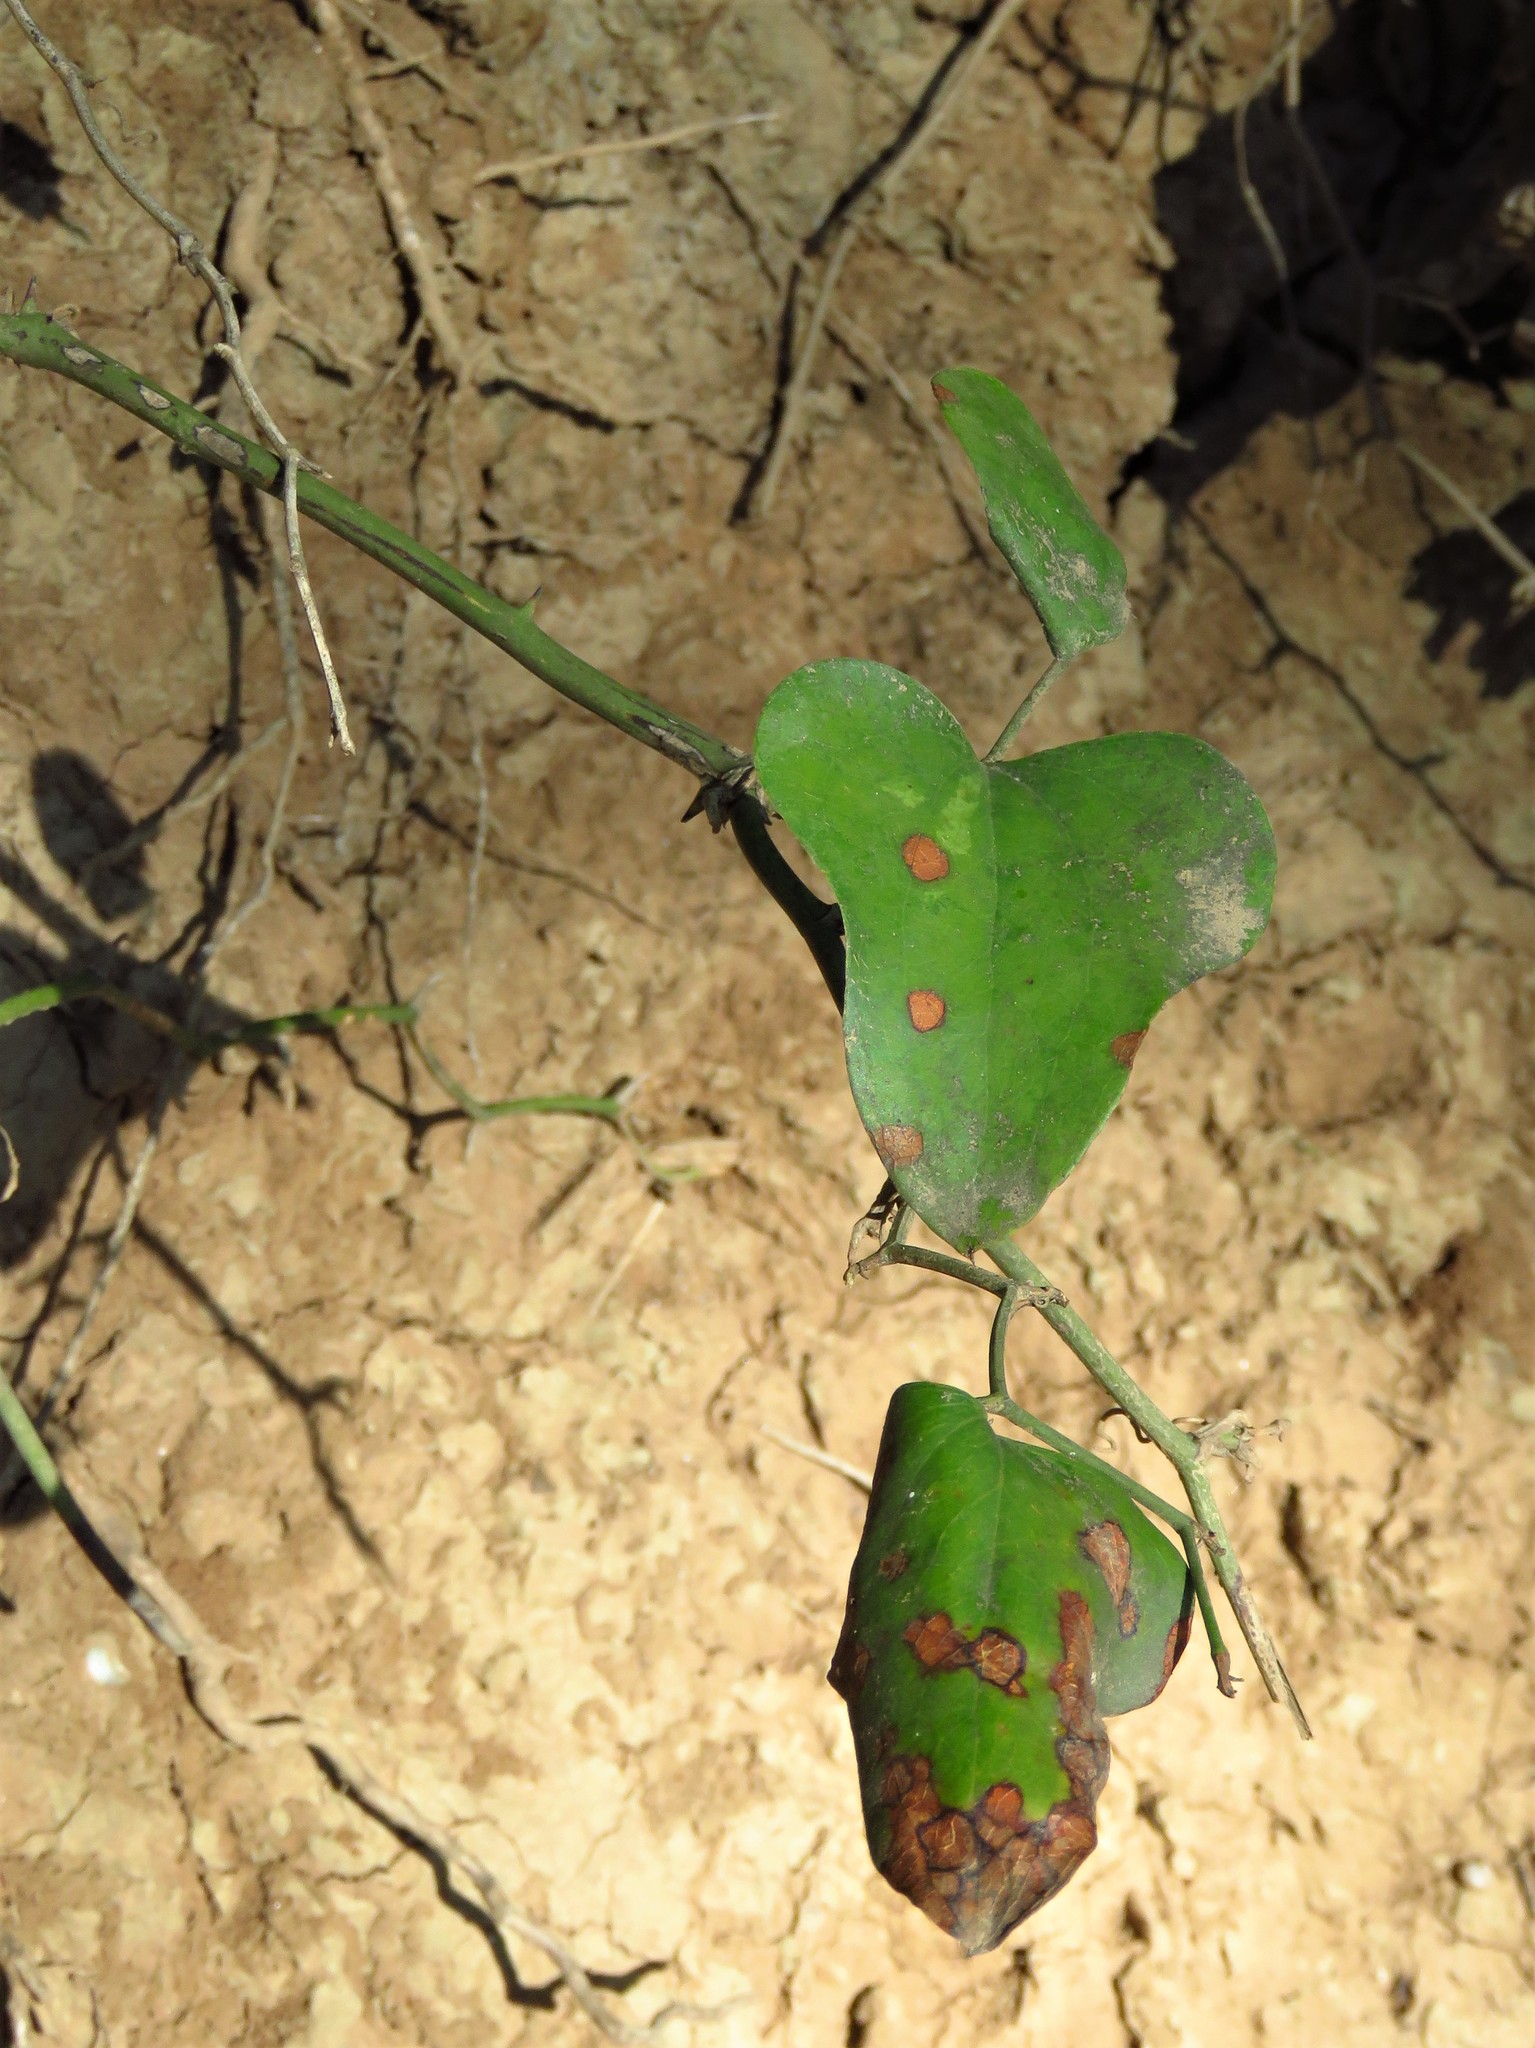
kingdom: Plantae
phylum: Tracheophyta
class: Liliopsida
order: Liliales
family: Smilacaceae
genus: Smilax
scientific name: Smilax bona-nox
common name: Catbrier
